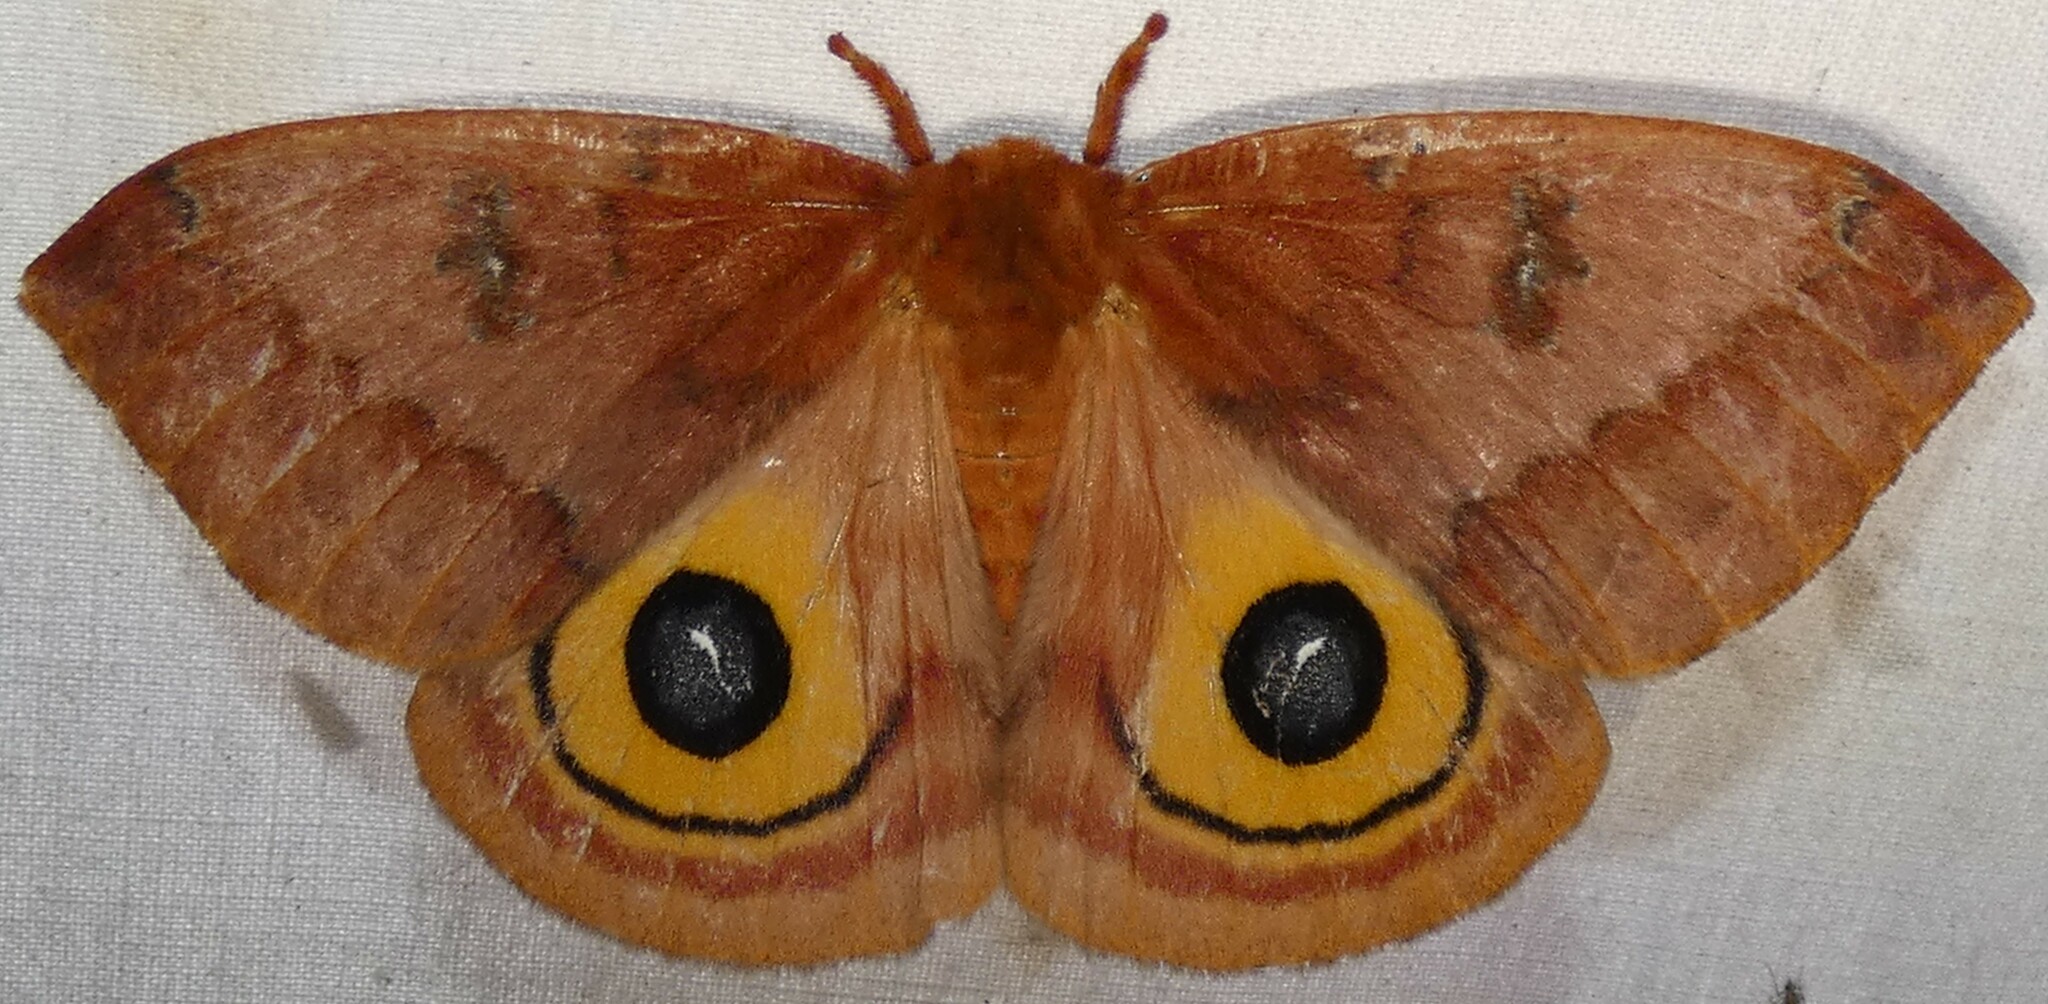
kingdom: Animalia
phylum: Arthropoda
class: Insecta
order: Lepidoptera
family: Saturniidae
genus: Automeris
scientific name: Automeris io
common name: Io moth
